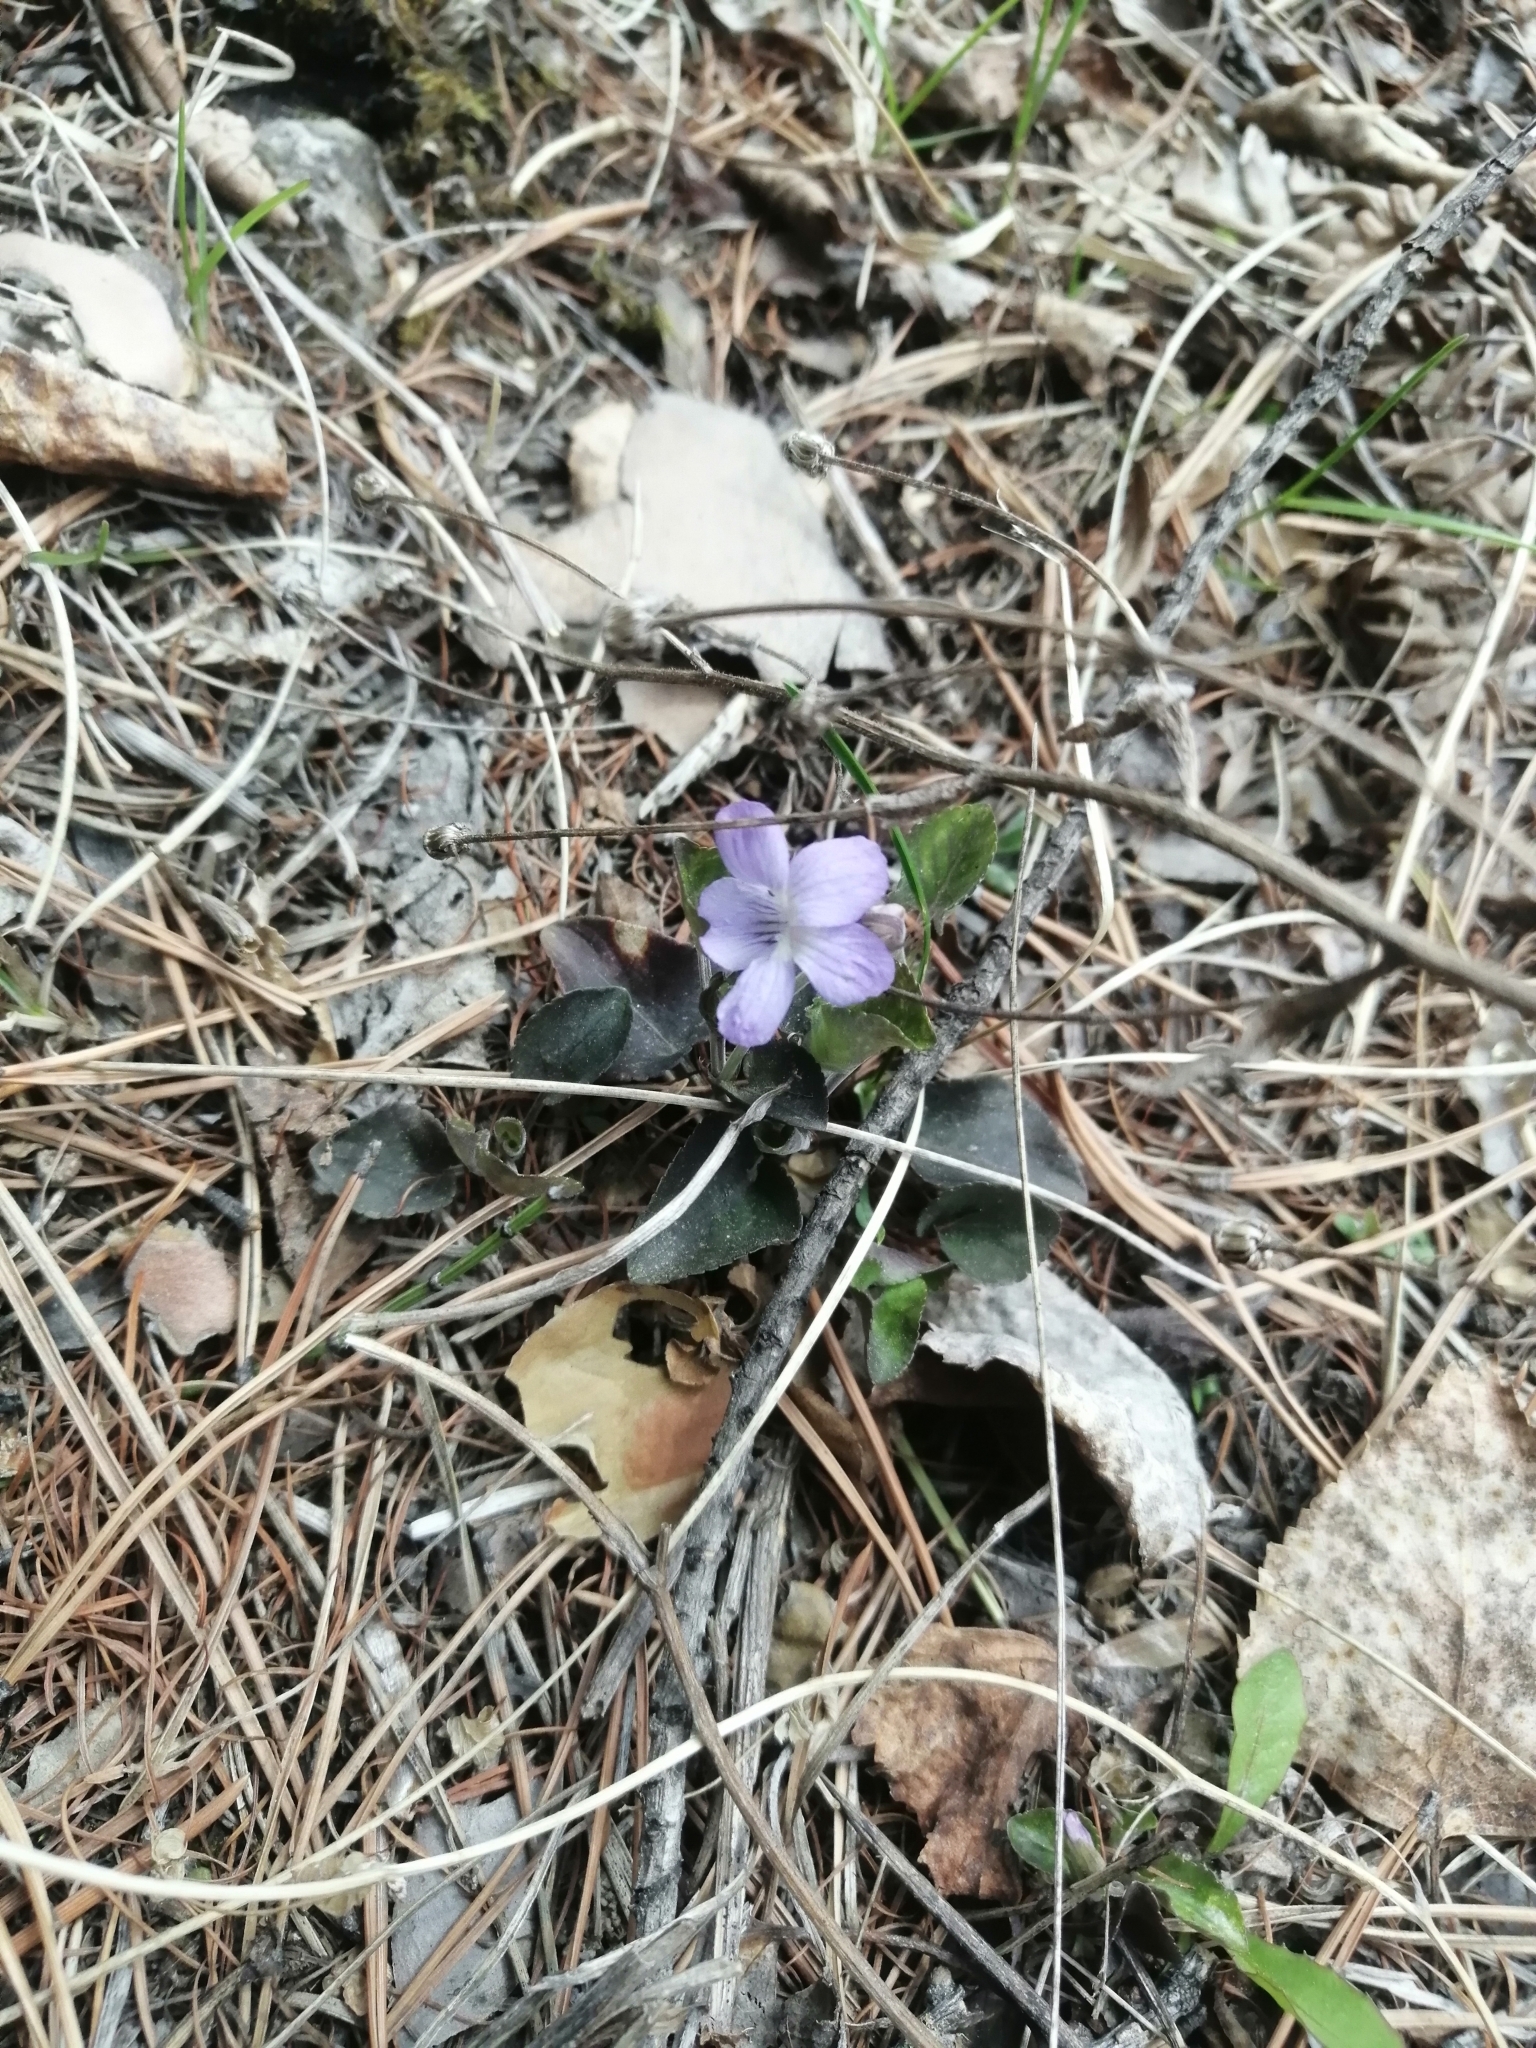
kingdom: Plantae
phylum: Tracheophyta
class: Magnoliopsida
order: Malpighiales
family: Violaceae
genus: Viola
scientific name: Viola rupestris
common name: Teesdale violet
